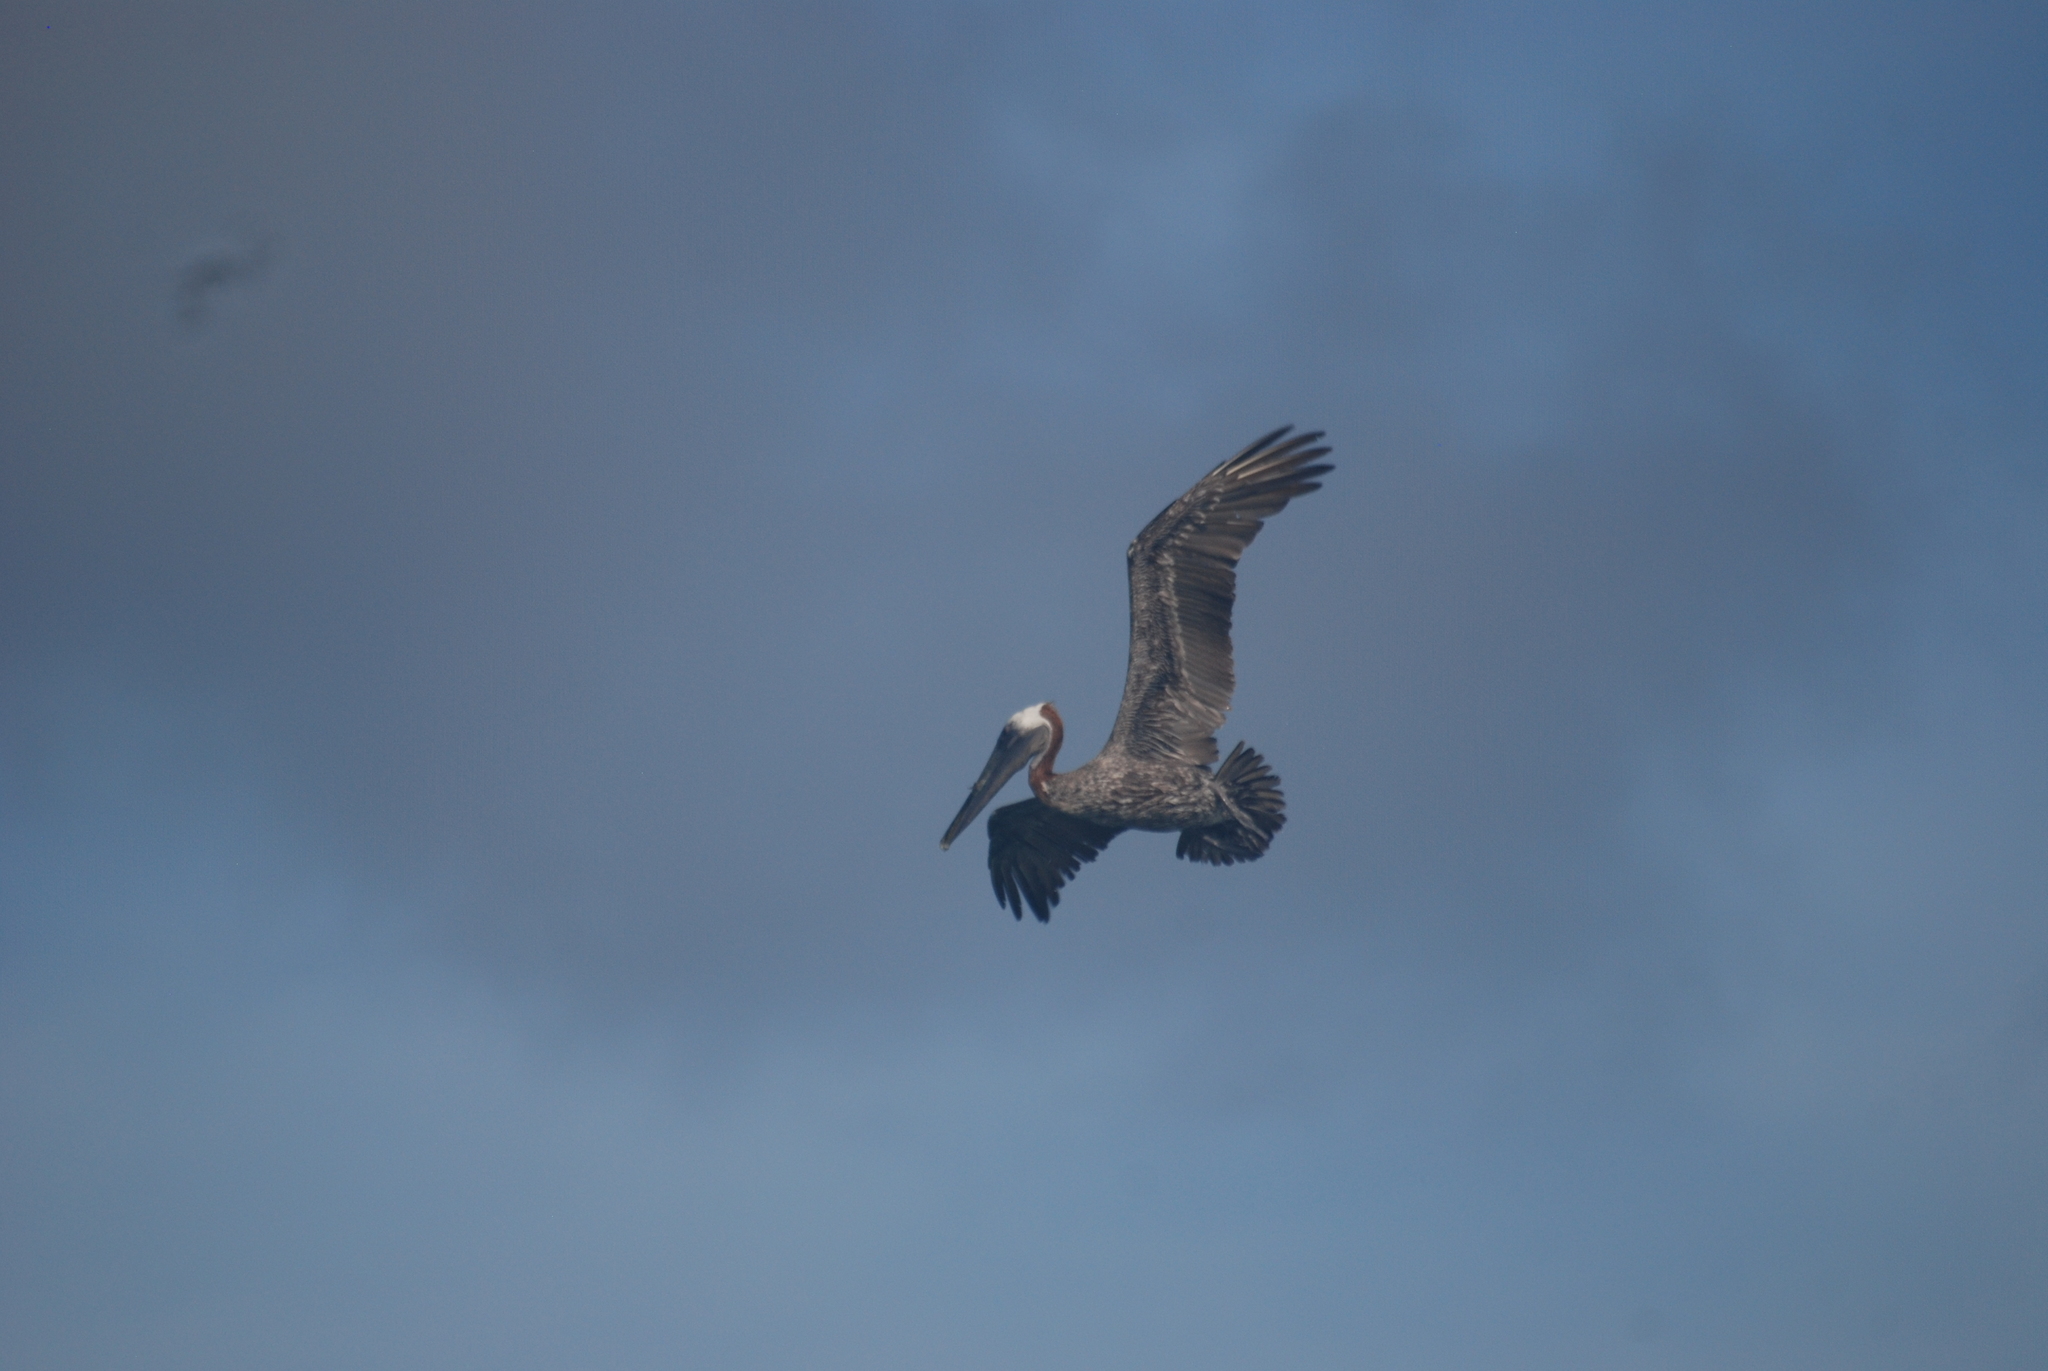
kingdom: Animalia
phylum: Chordata
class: Aves
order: Pelecaniformes
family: Pelecanidae
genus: Pelecanus
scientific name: Pelecanus occidentalis
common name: Brown pelican
